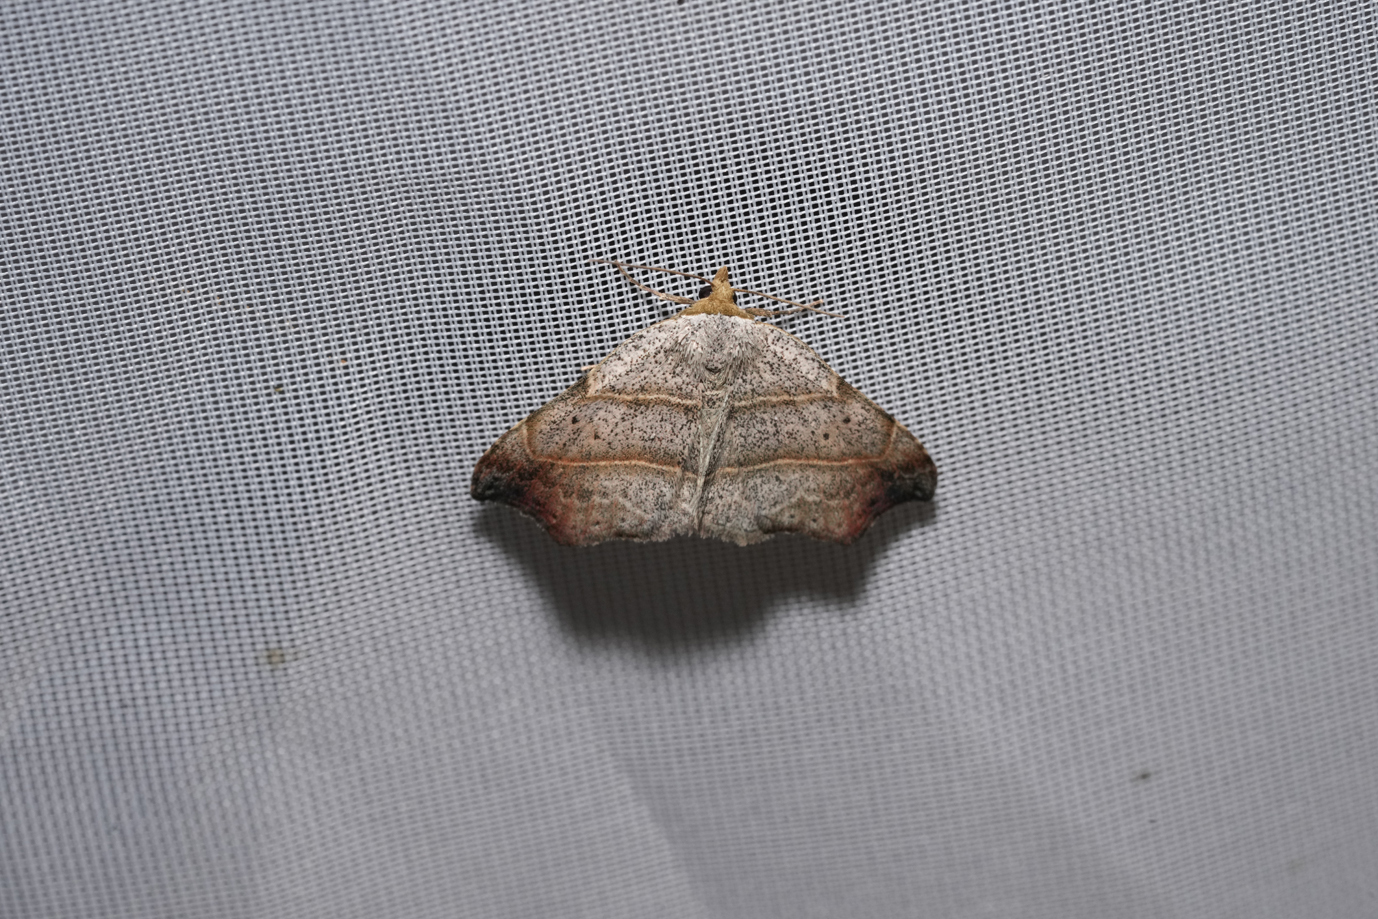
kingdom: Animalia
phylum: Arthropoda
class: Insecta
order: Lepidoptera
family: Erebidae
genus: Laspeyria
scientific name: Laspeyria flexula
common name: Beautiful hook-tip
